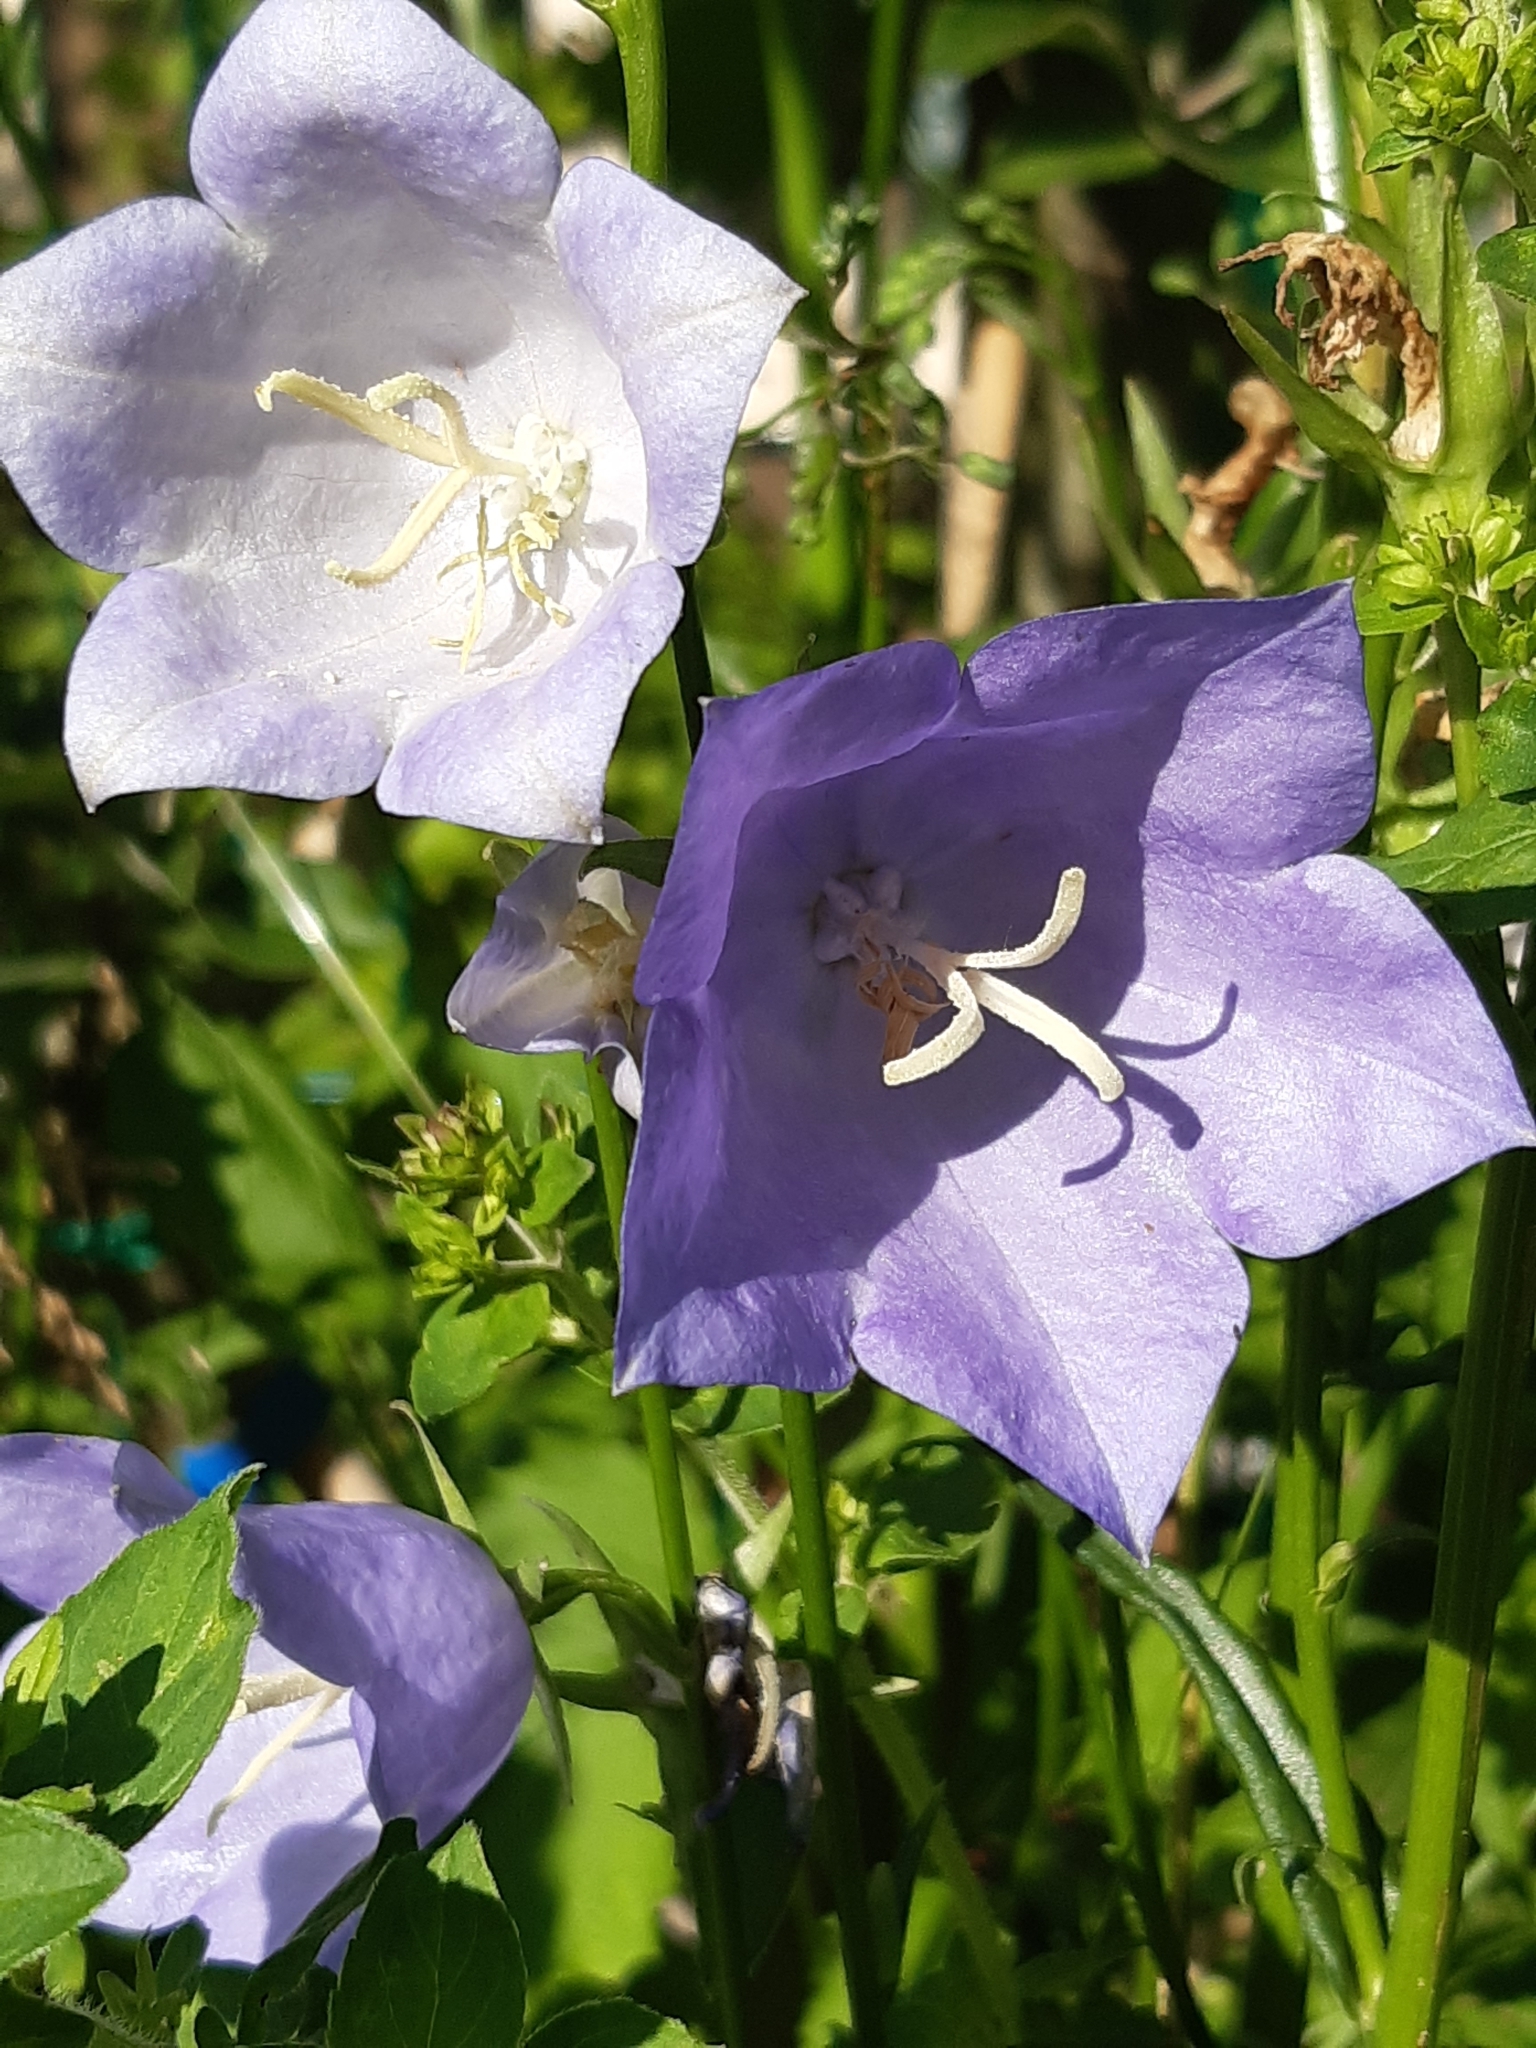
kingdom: Plantae
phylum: Tracheophyta
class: Magnoliopsida
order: Asterales
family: Campanulaceae
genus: Campanula
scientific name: Campanula persicifolia
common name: Peach-leaved bellflower
